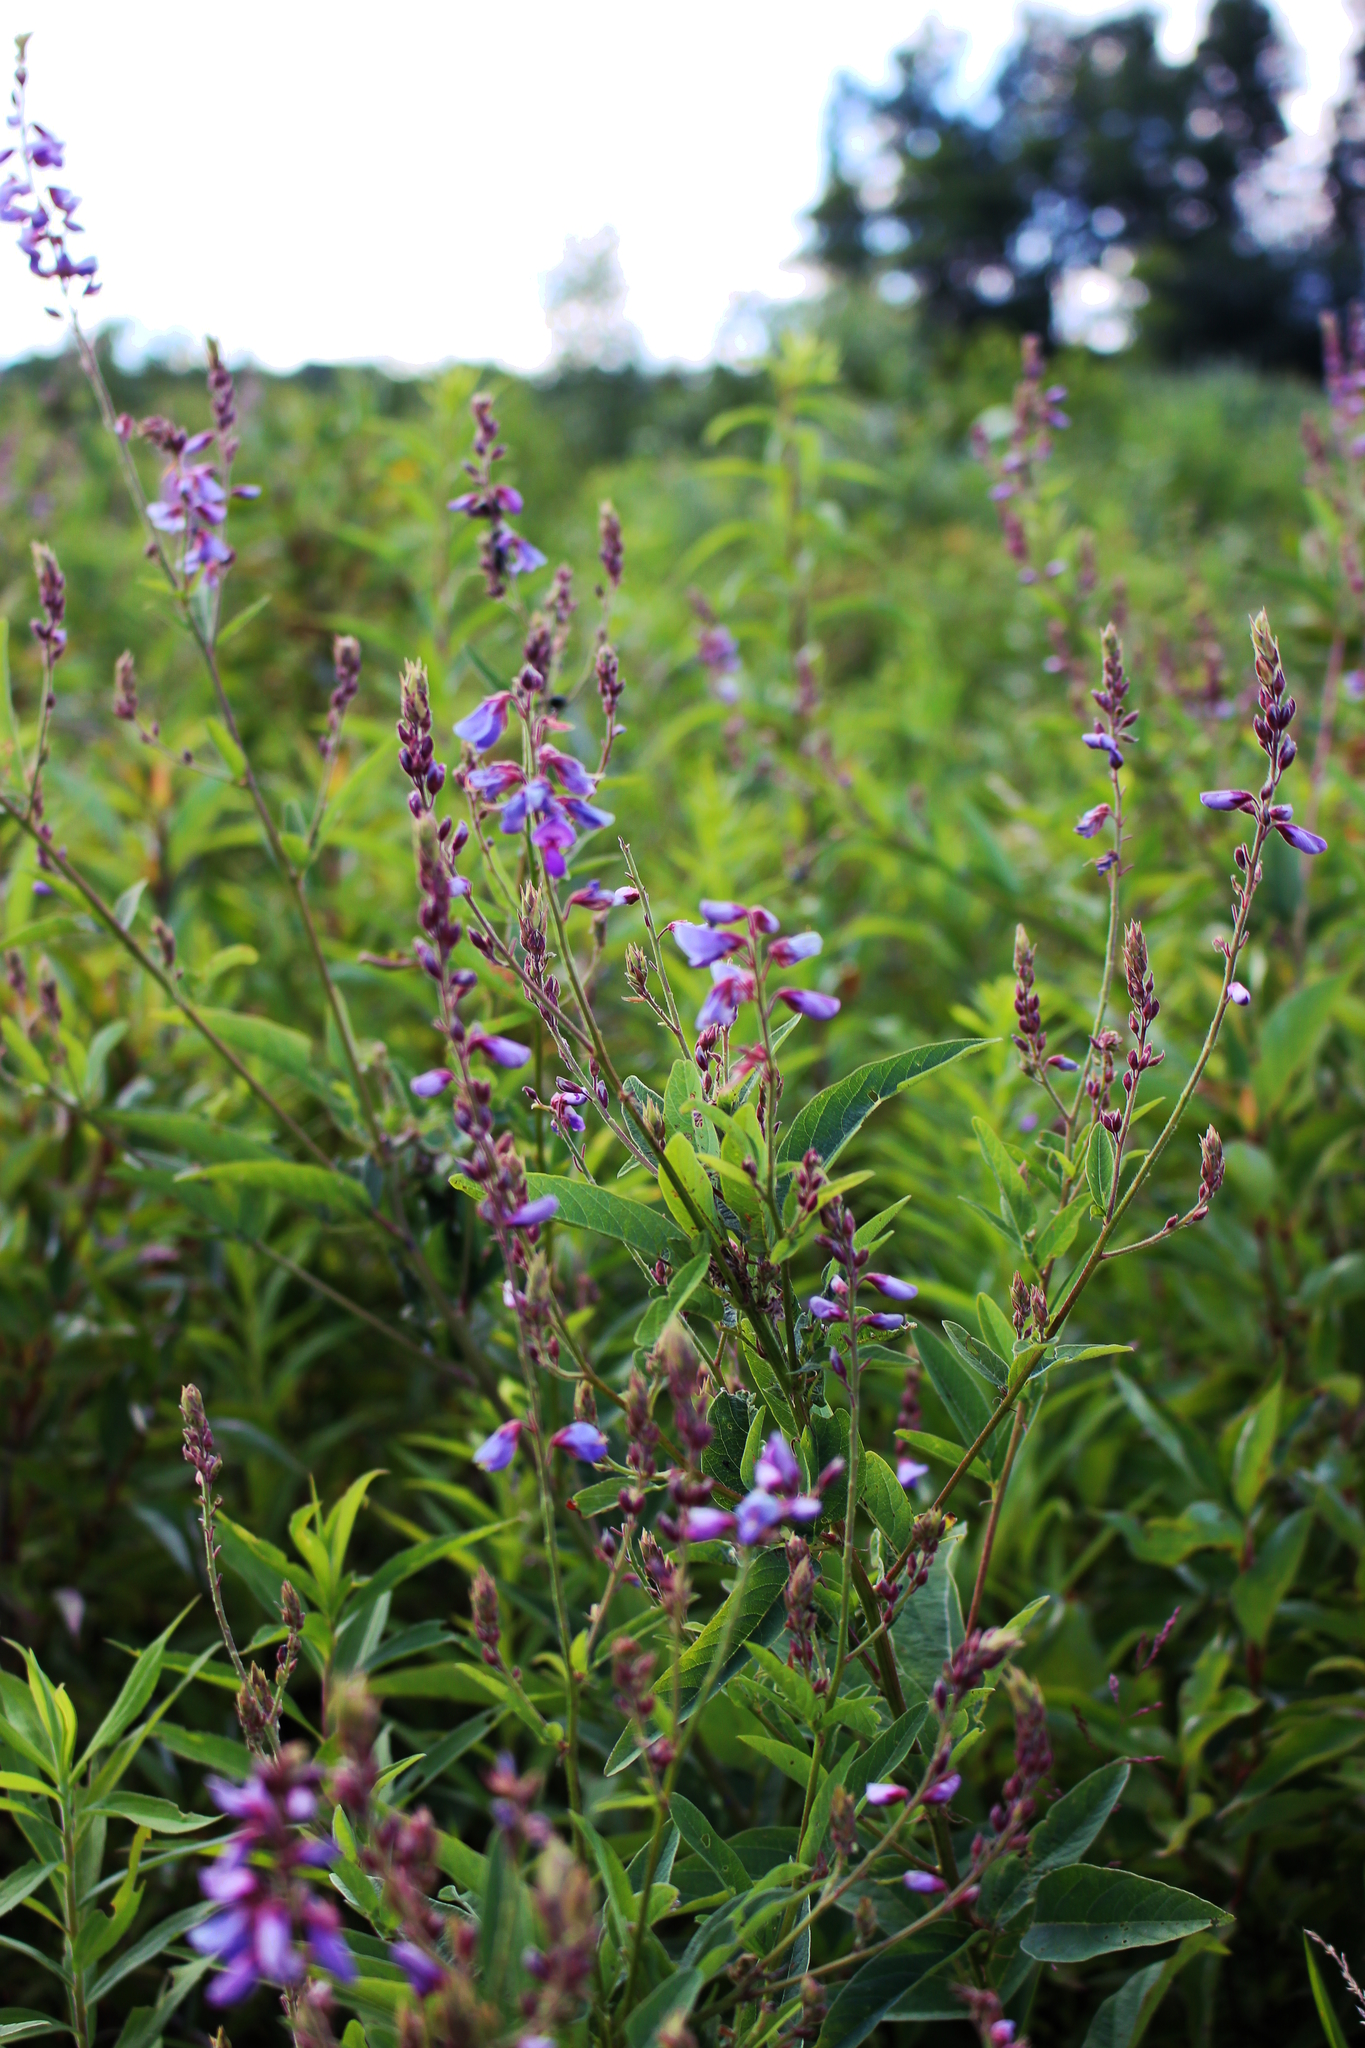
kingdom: Plantae
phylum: Tracheophyta
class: Magnoliopsida
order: Fabales
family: Fabaceae
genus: Desmodium
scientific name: Desmodium canadense
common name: Canada tick-trefoil
